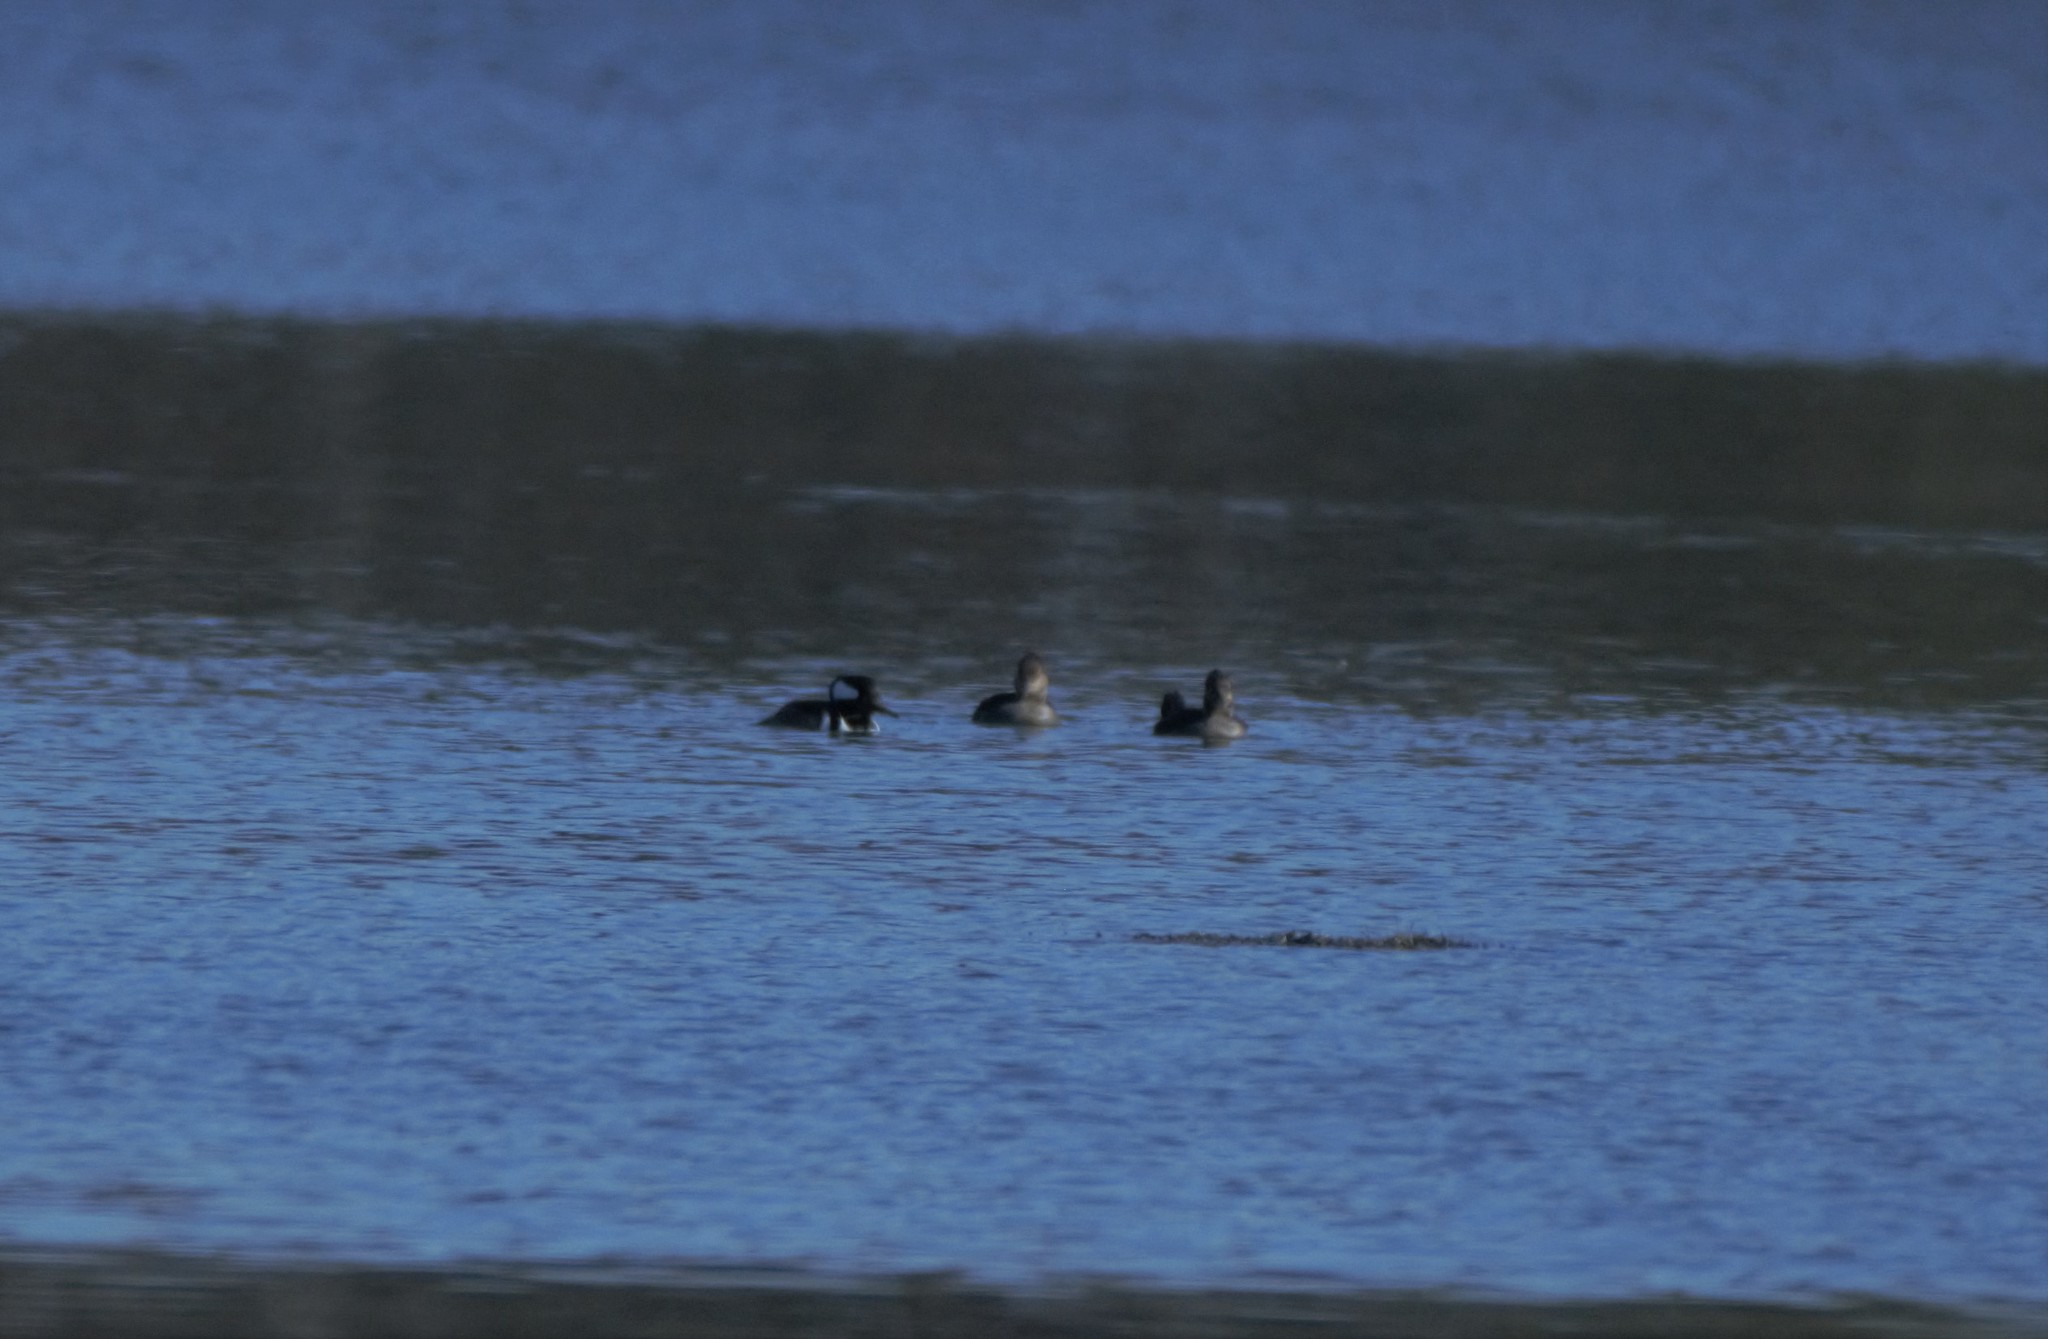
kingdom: Animalia
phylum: Chordata
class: Aves
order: Anseriformes
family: Anatidae
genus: Lophodytes
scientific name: Lophodytes cucullatus
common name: Hooded merganser
